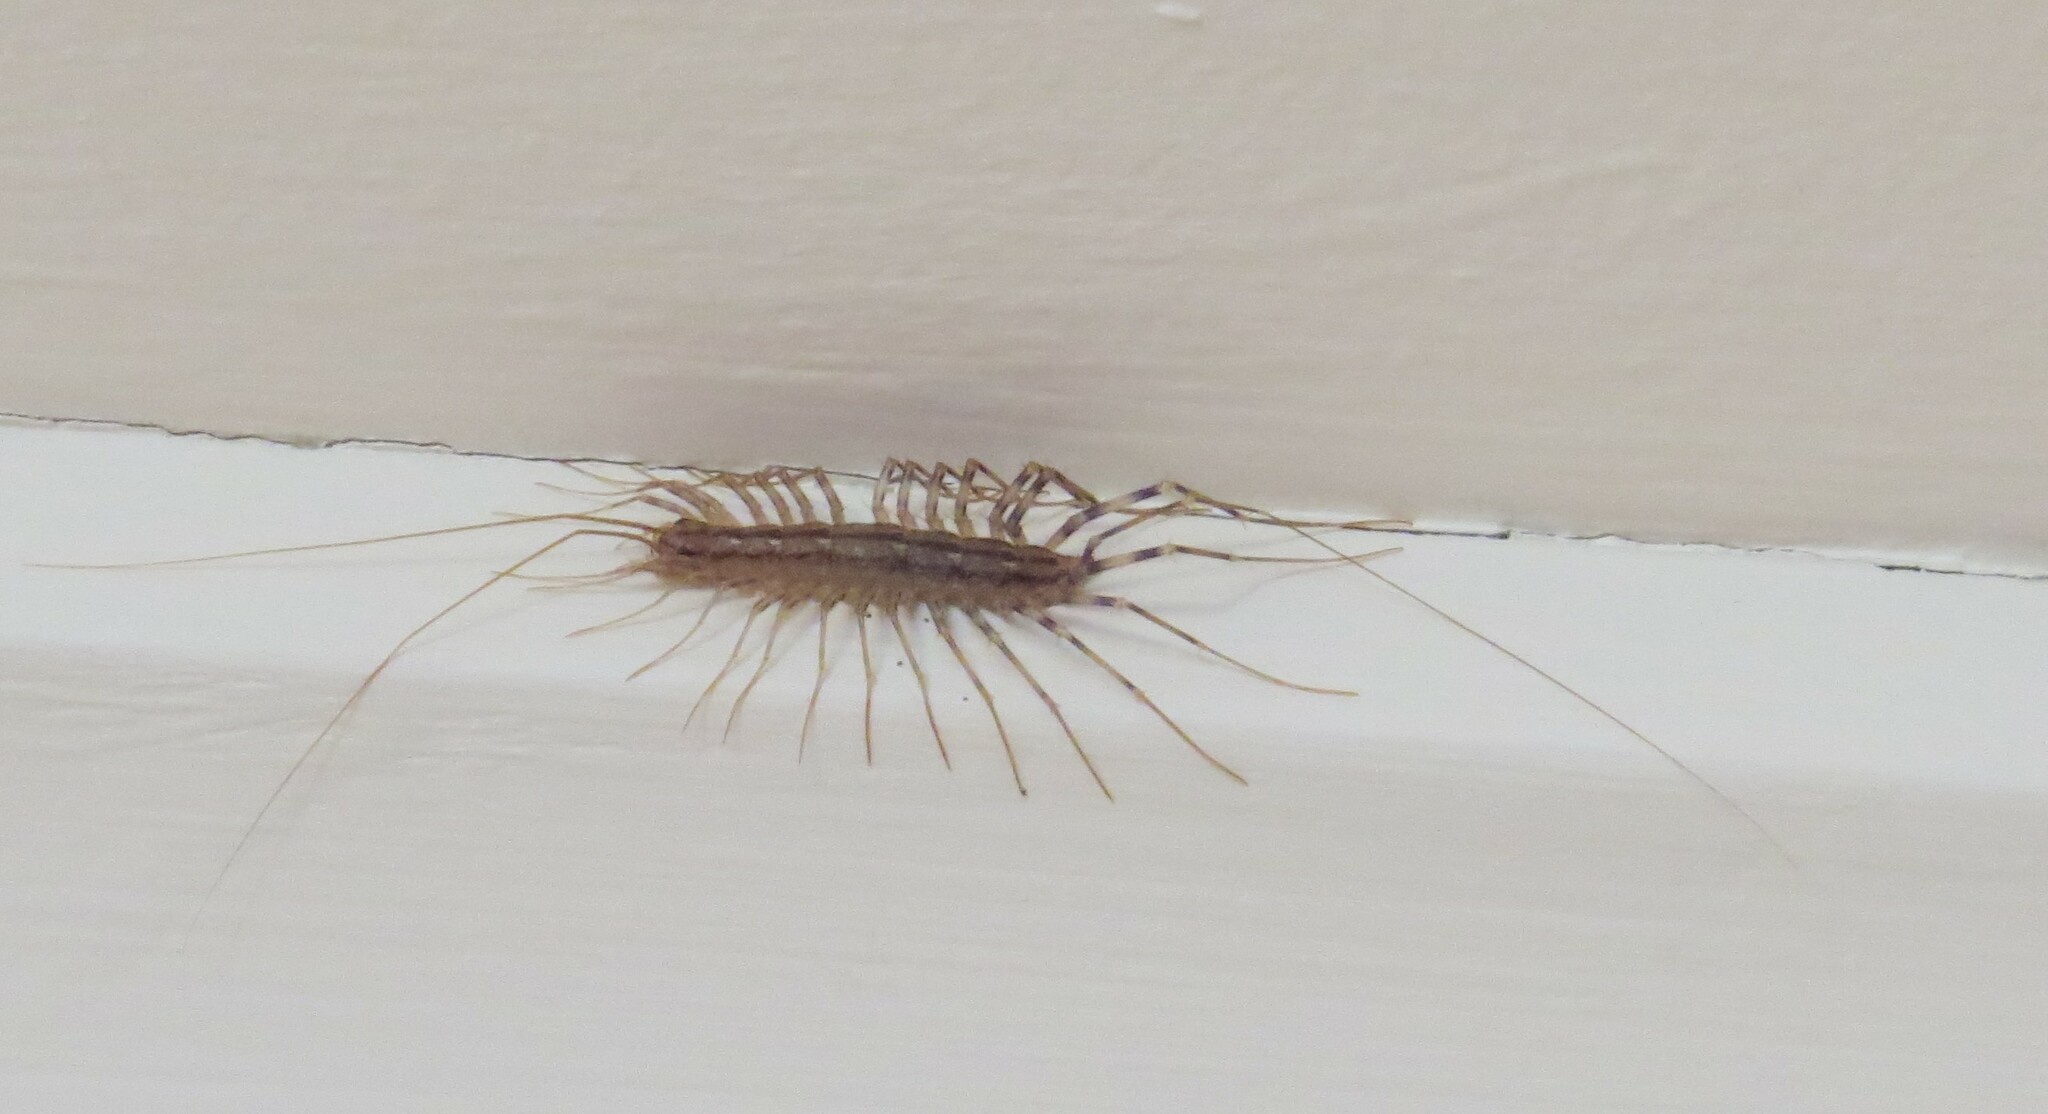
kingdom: Animalia
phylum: Arthropoda
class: Chilopoda
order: Scutigeromorpha
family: Scutigeridae
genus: Scutigera
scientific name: Scutigera coleoptrata
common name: House centipede
